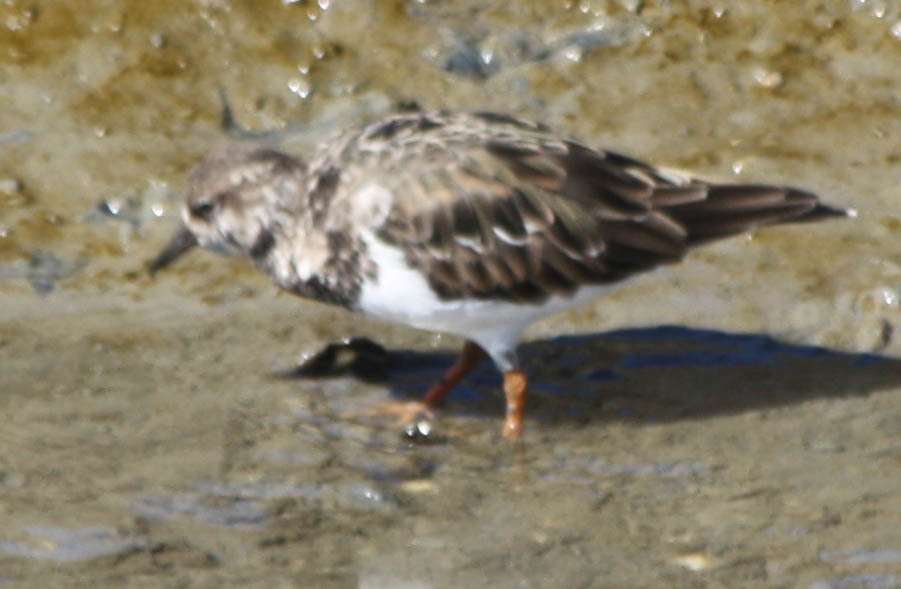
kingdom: Animalia
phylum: Chordata
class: Aves
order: Charadriiformes
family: Scolopacidae
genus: Arenaria
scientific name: Arenaria interpres
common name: Ruddy turnstone
